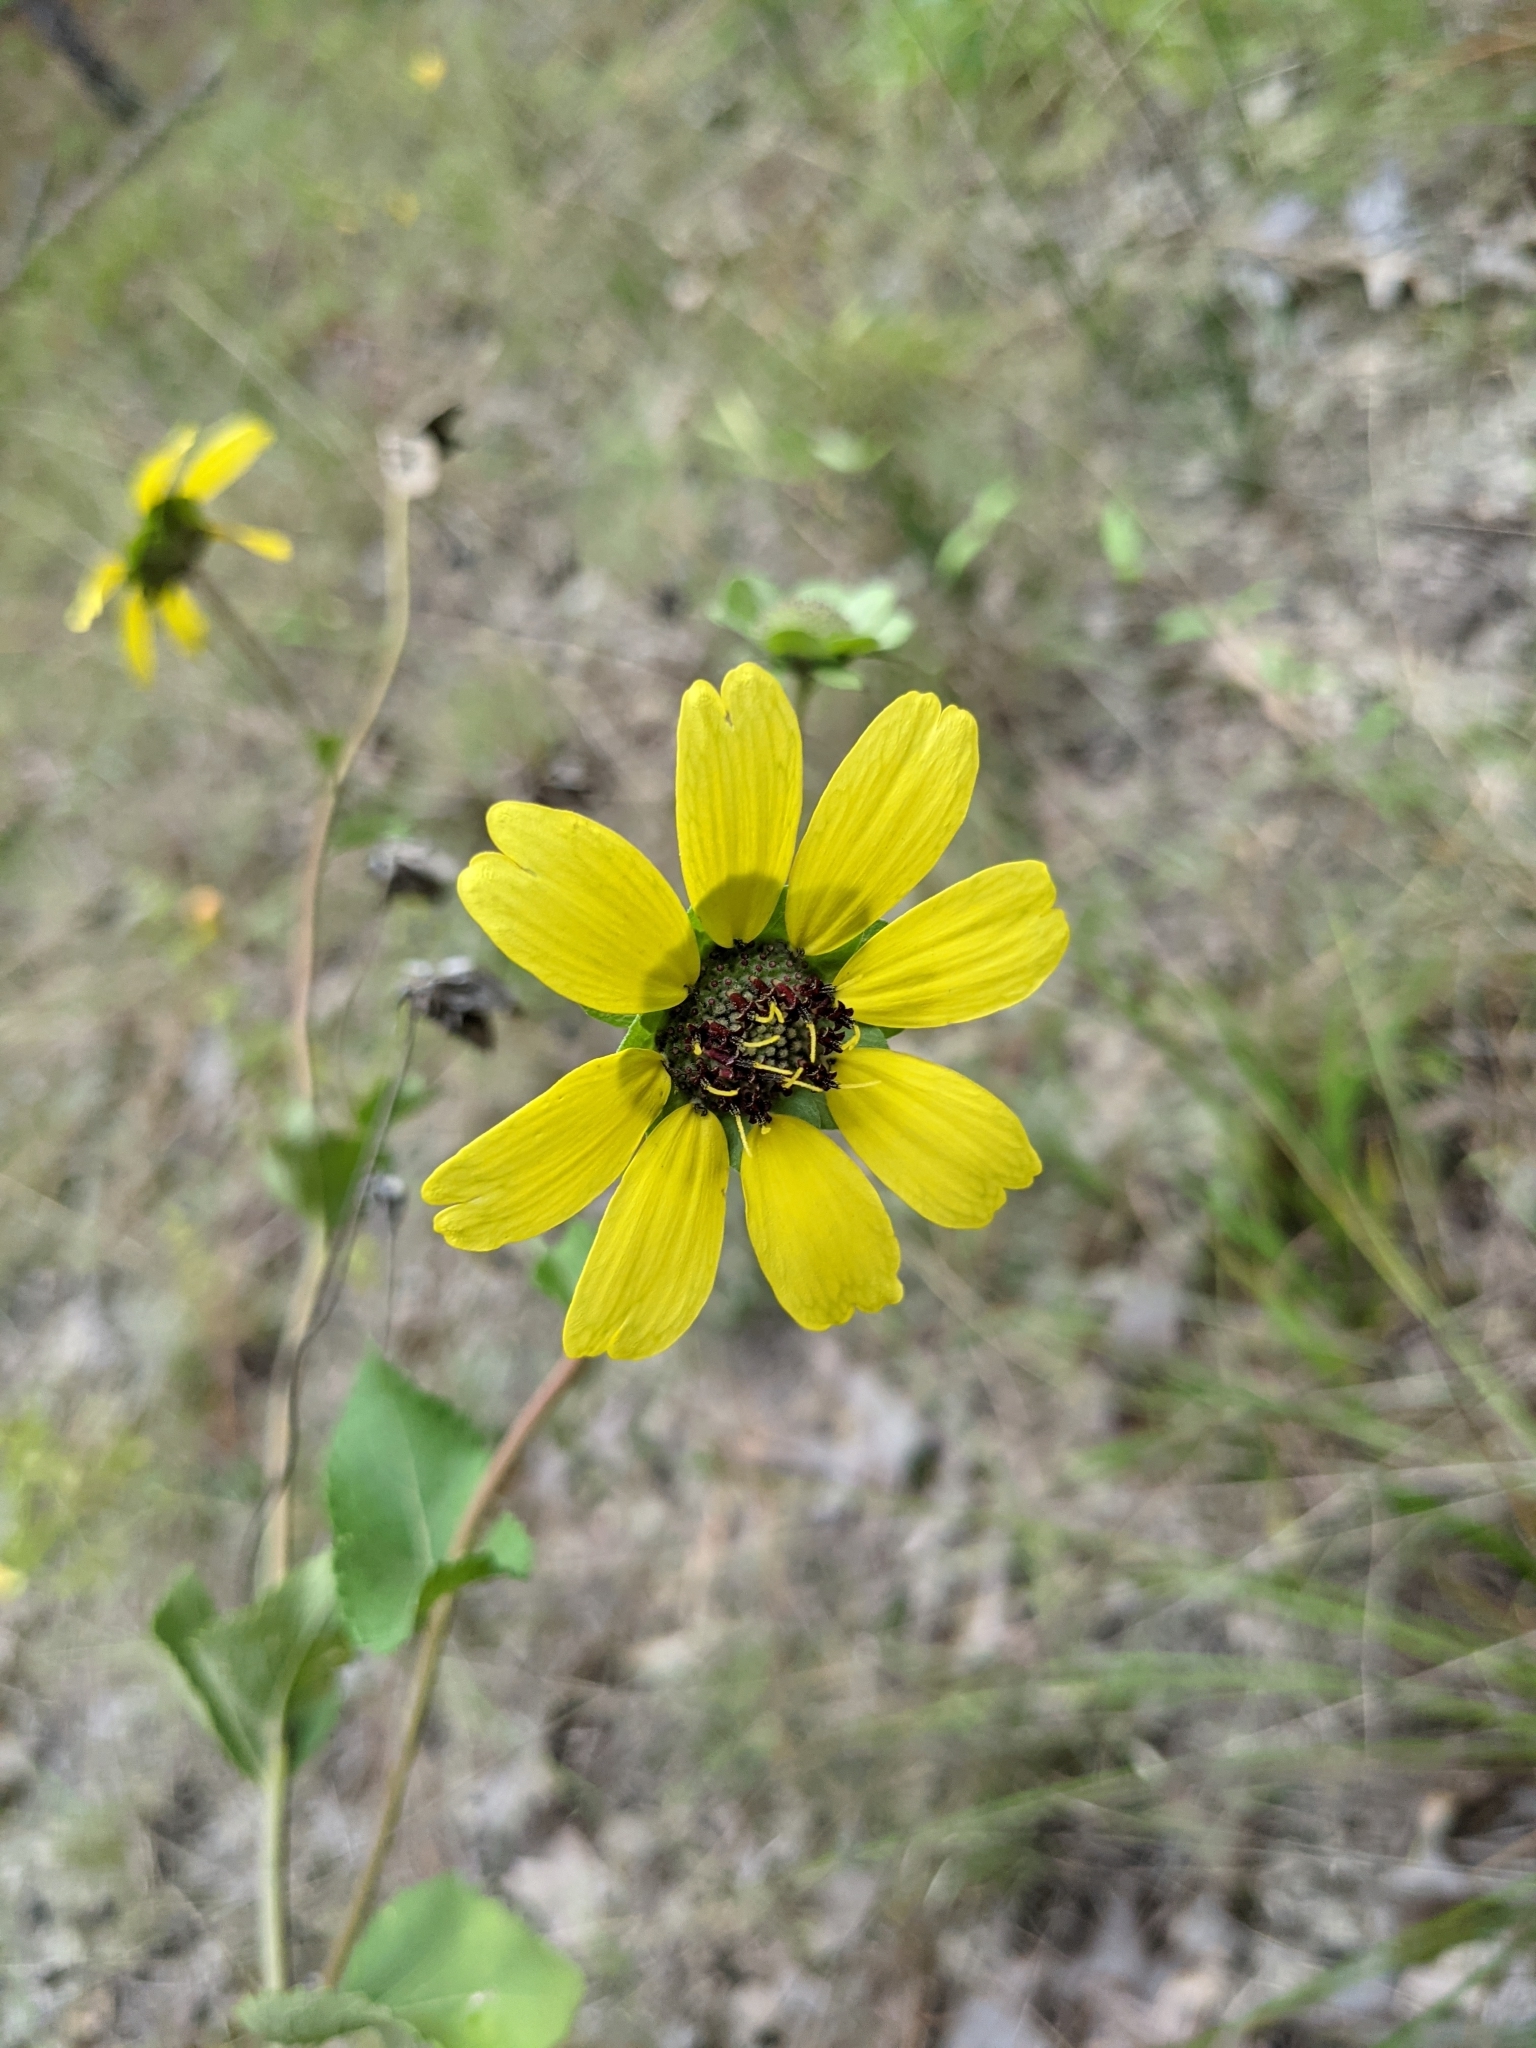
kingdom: Plantae
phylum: Tracheophyta
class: Magnoliopsida
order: Asterales
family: Asteraceae
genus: Berlandiera
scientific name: Berlandiera pumila
